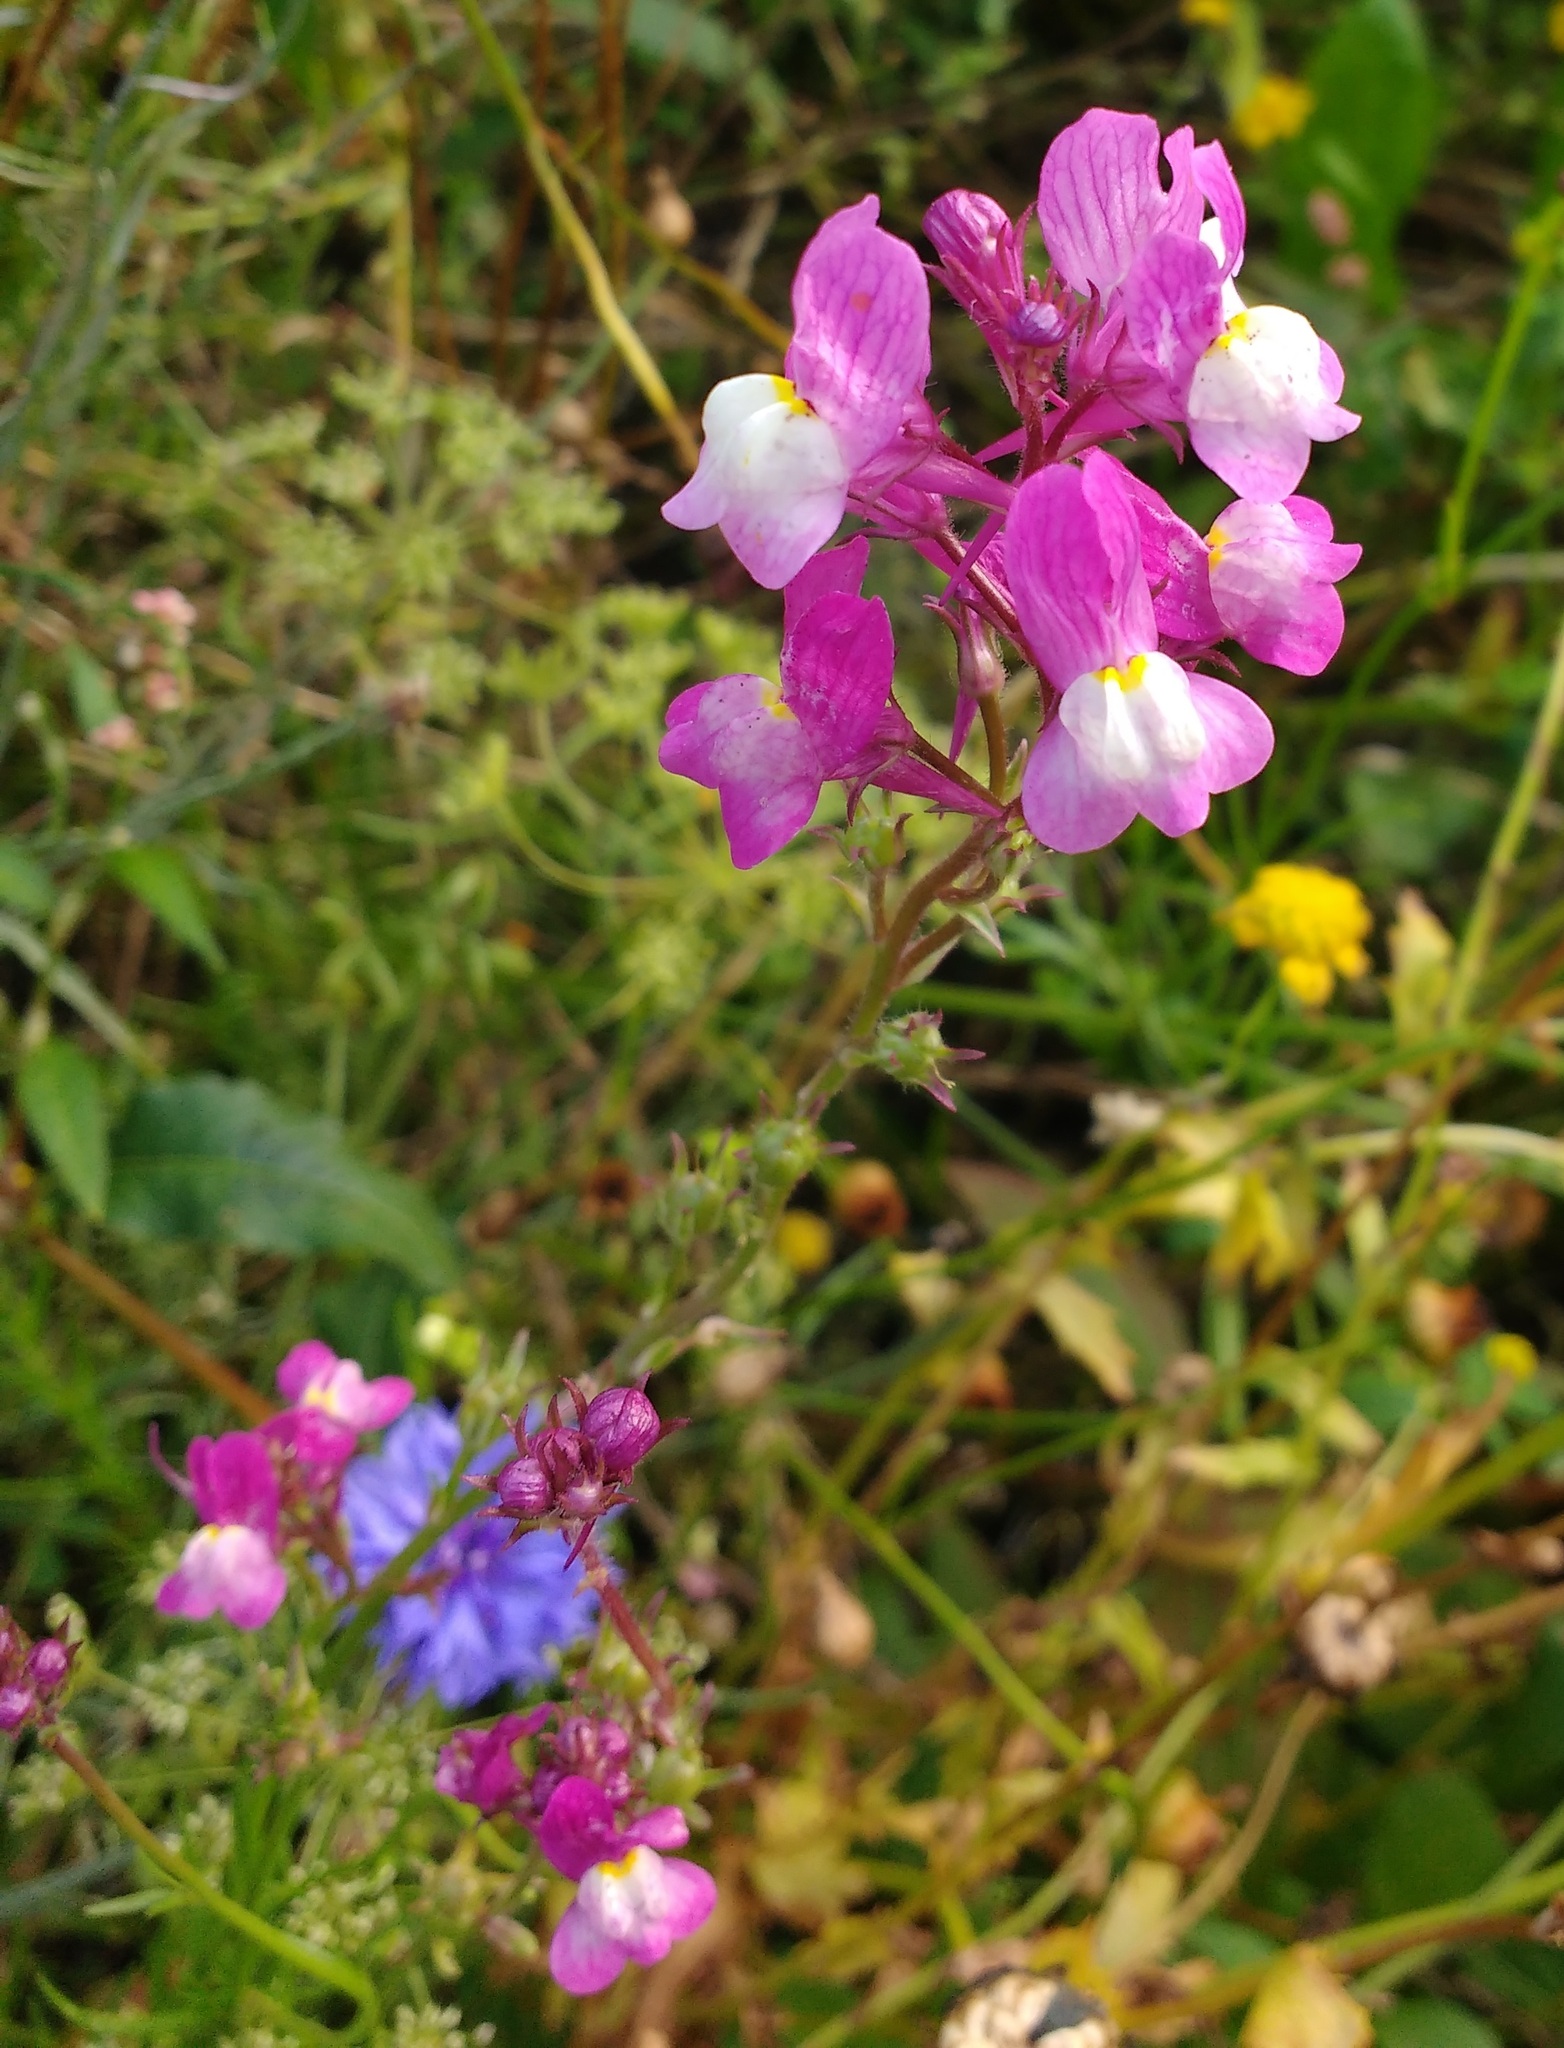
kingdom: Plantae
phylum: Tracheophyta
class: Magnoliopsida
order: Lamiales
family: Plantaginaceae
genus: Linaria
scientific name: Linaria maroccana
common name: Moroccan toadflax
